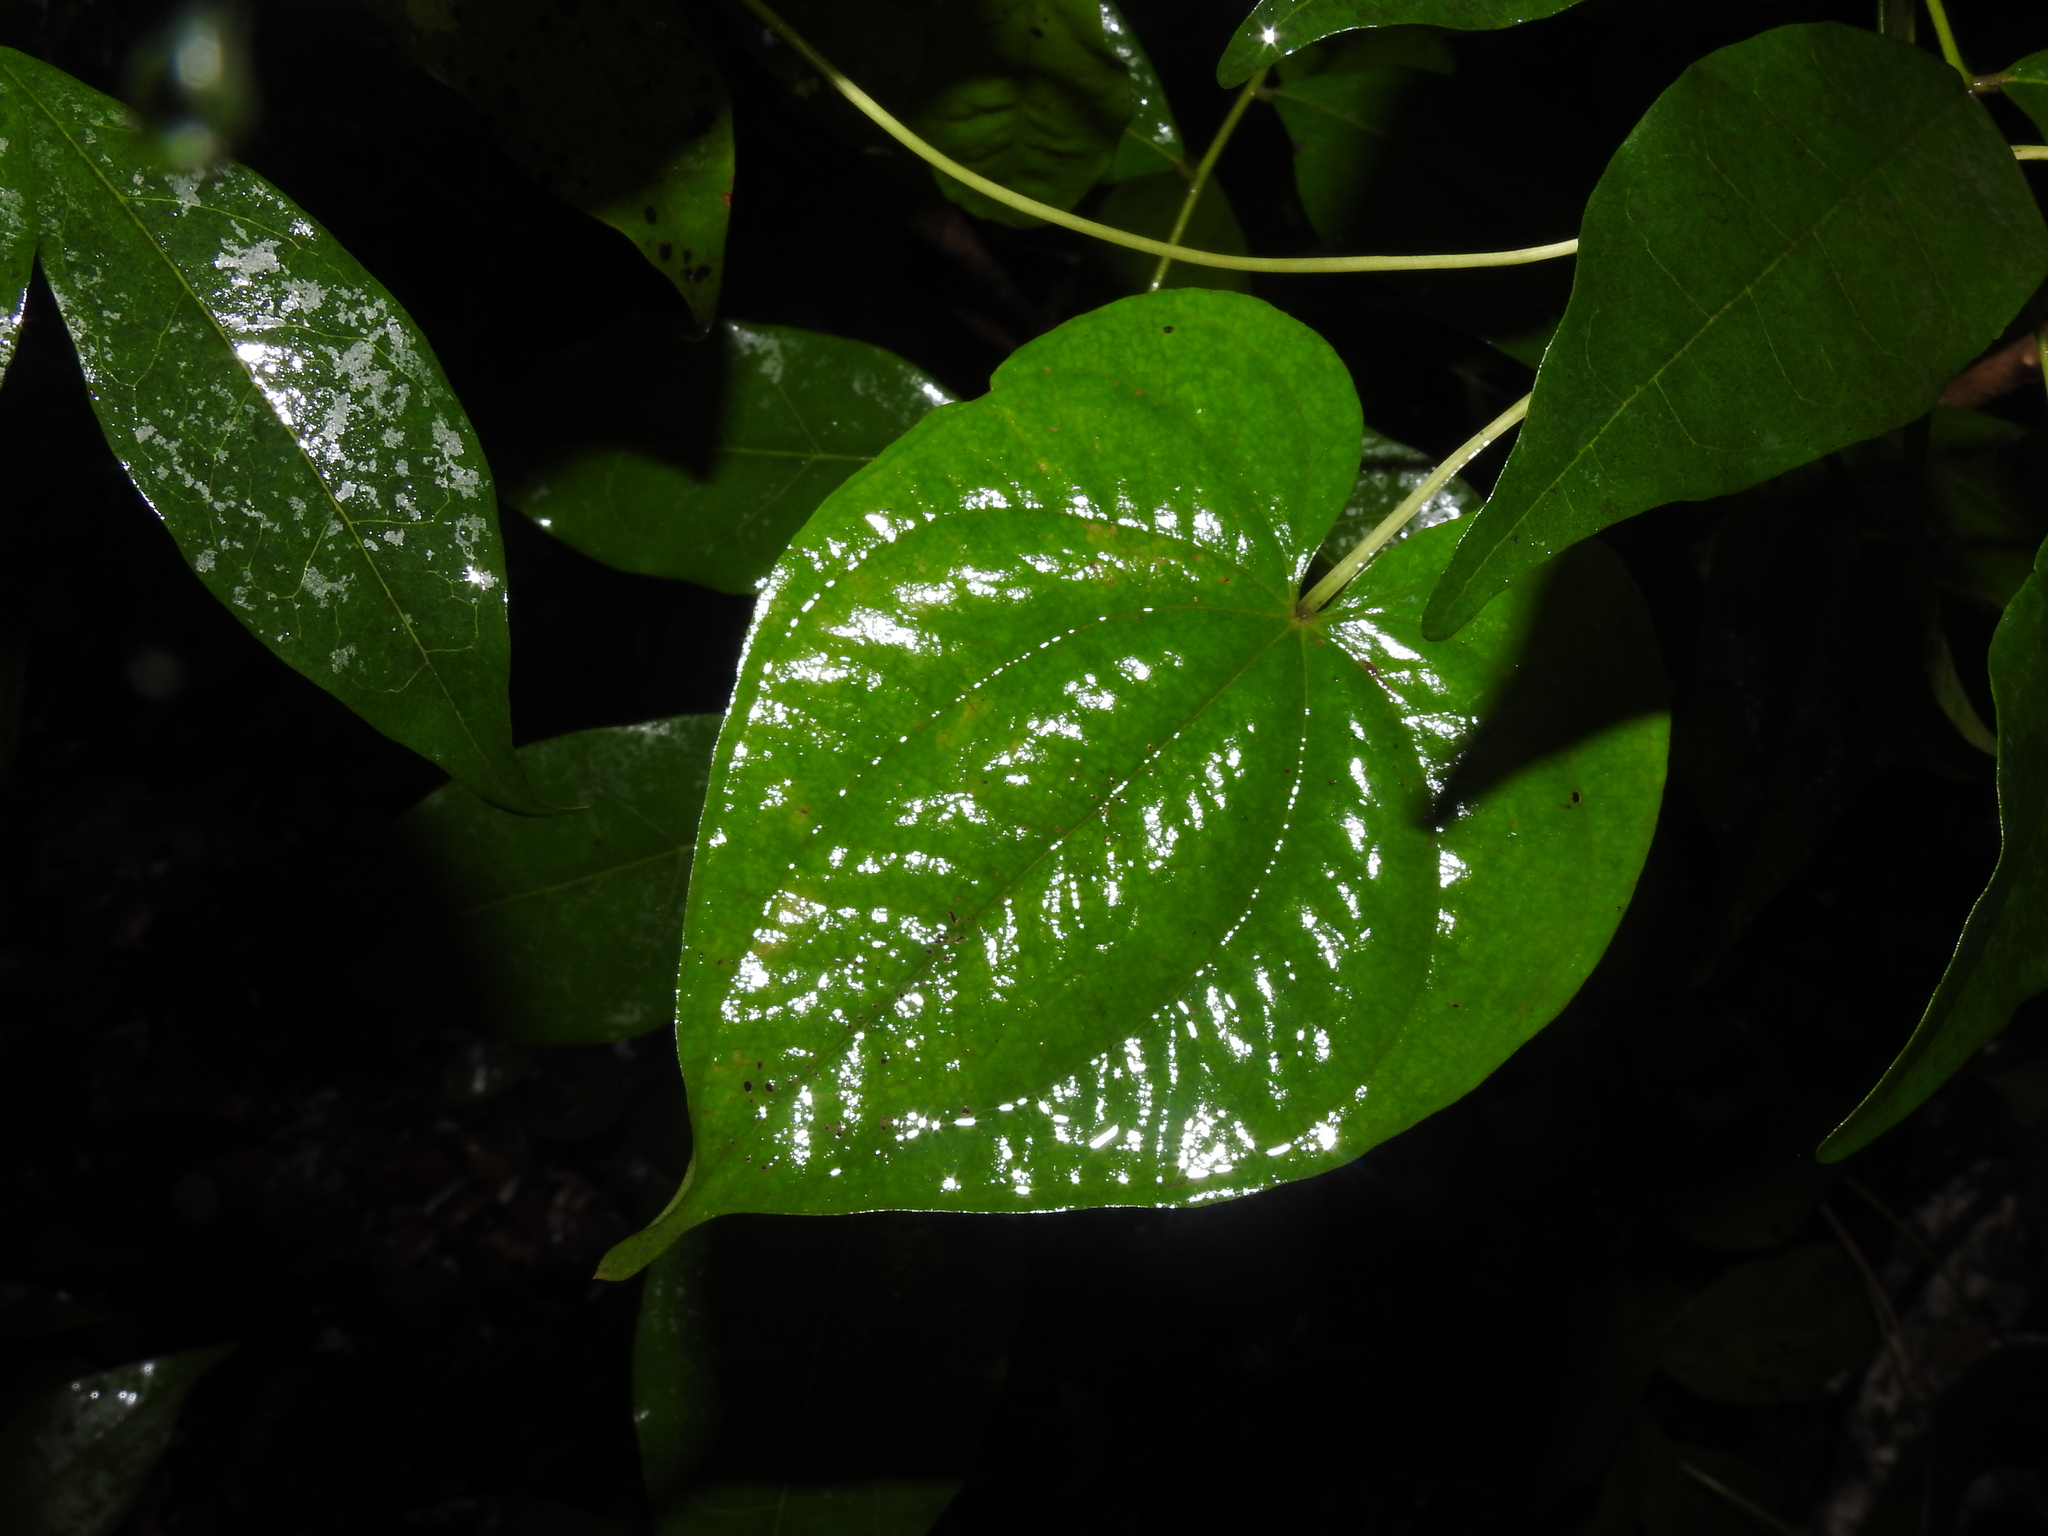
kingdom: Plantae
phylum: Tracheophyta
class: Liliopsida
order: Dioscoreales
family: Dioscoreaceae
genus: Dioscorea
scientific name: Dioscorea bulbifera
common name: Air yam
